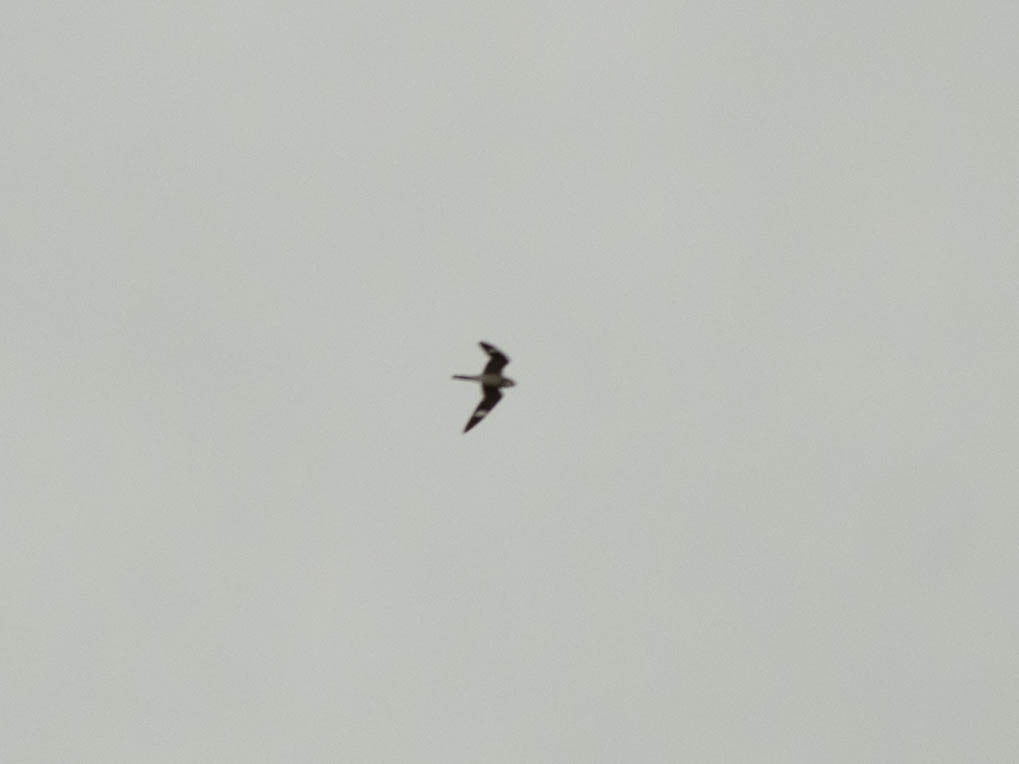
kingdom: Animalia
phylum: Chordata
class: Aves
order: Caprimulgiformes
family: Caprimulgidae
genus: Chordeiles
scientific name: Chordeiles minor
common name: Common nighthawk
